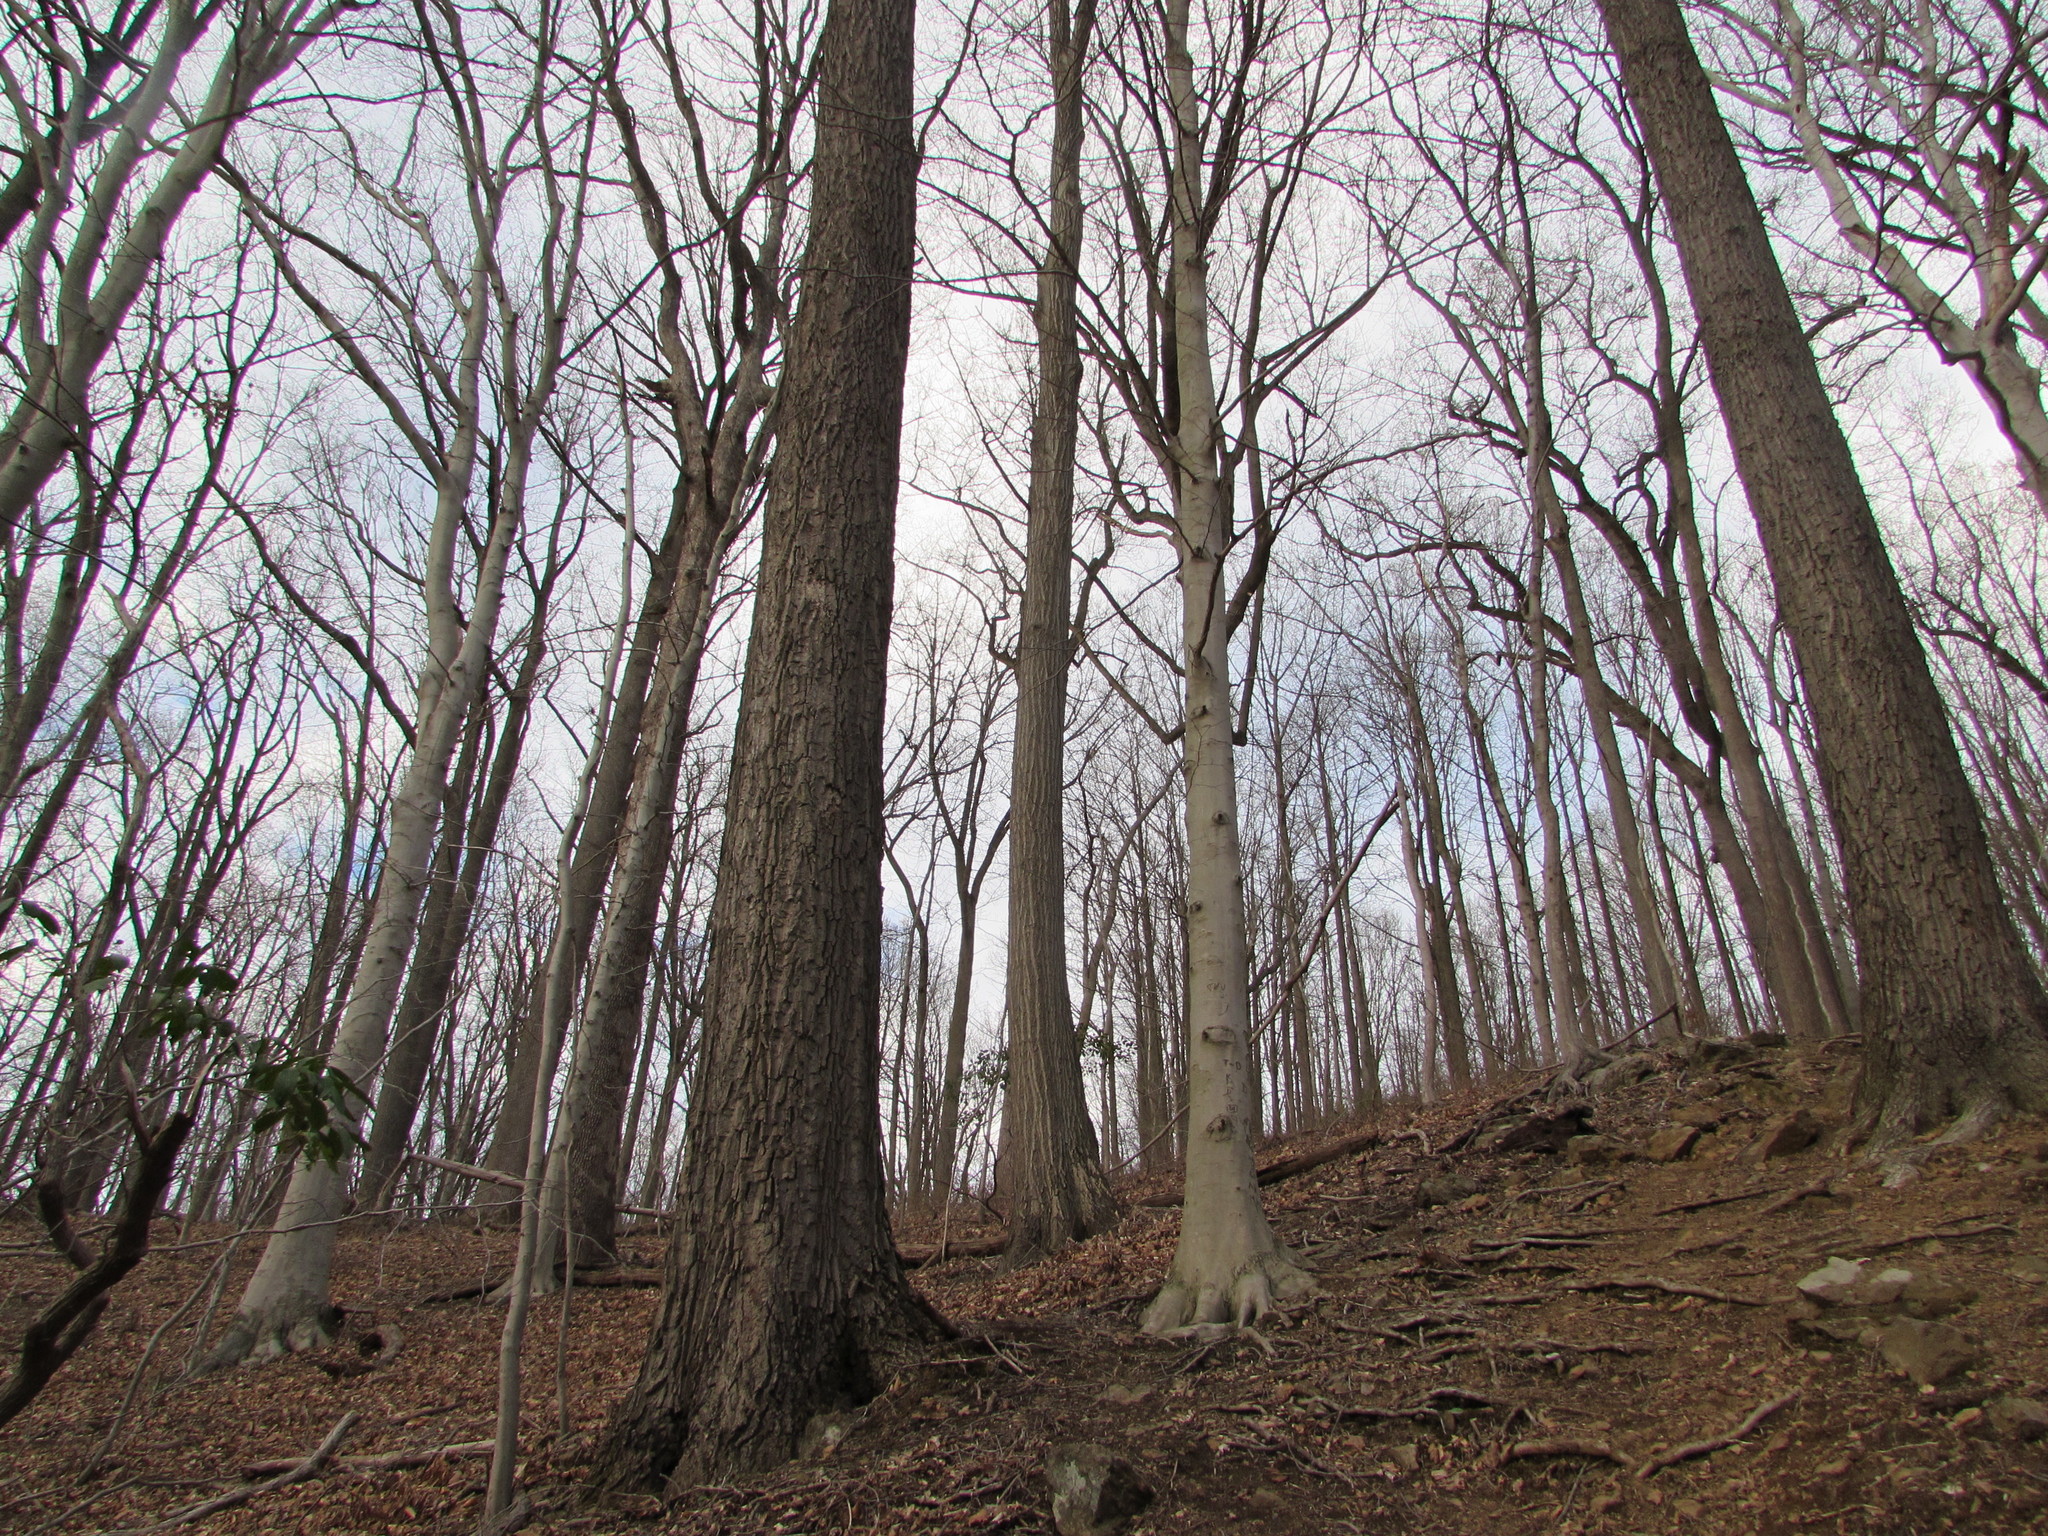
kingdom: Plantae
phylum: Tracheophyta
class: Magnoliopsida
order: Fagales
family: Fagaceae
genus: Quercus
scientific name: Quercus montana
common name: Chestnut oak
